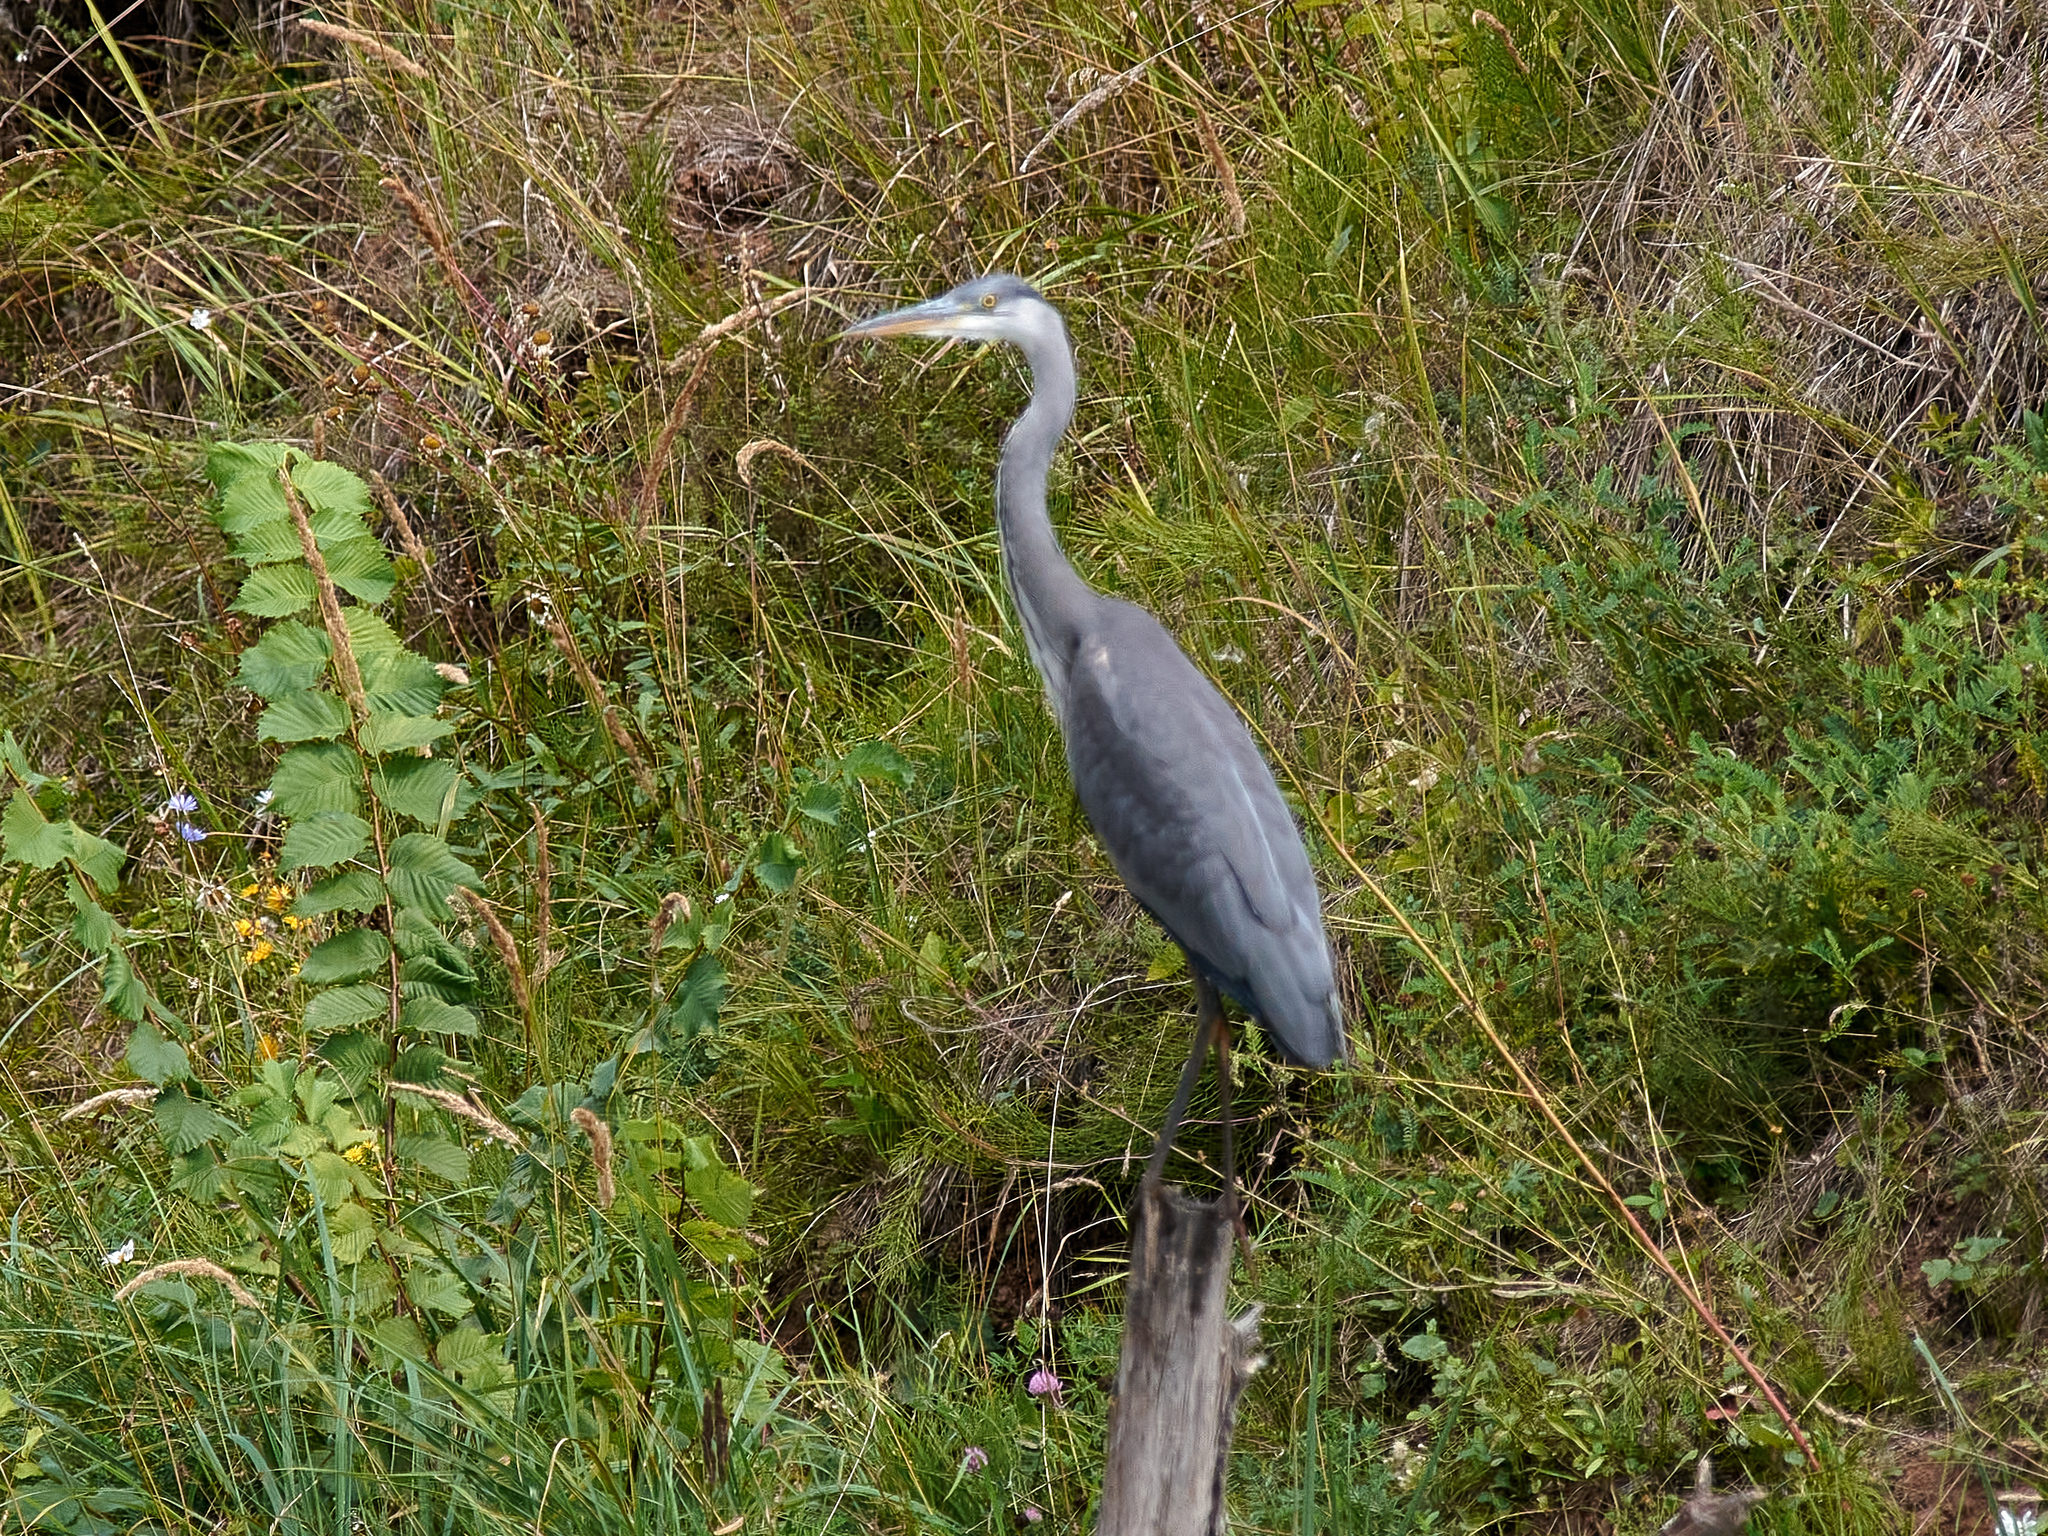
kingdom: Animalia
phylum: Chordata
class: Aves
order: Pelecaniformes
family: Ardeidae
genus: Ardea
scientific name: Ardea cinerea
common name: Grey heron
